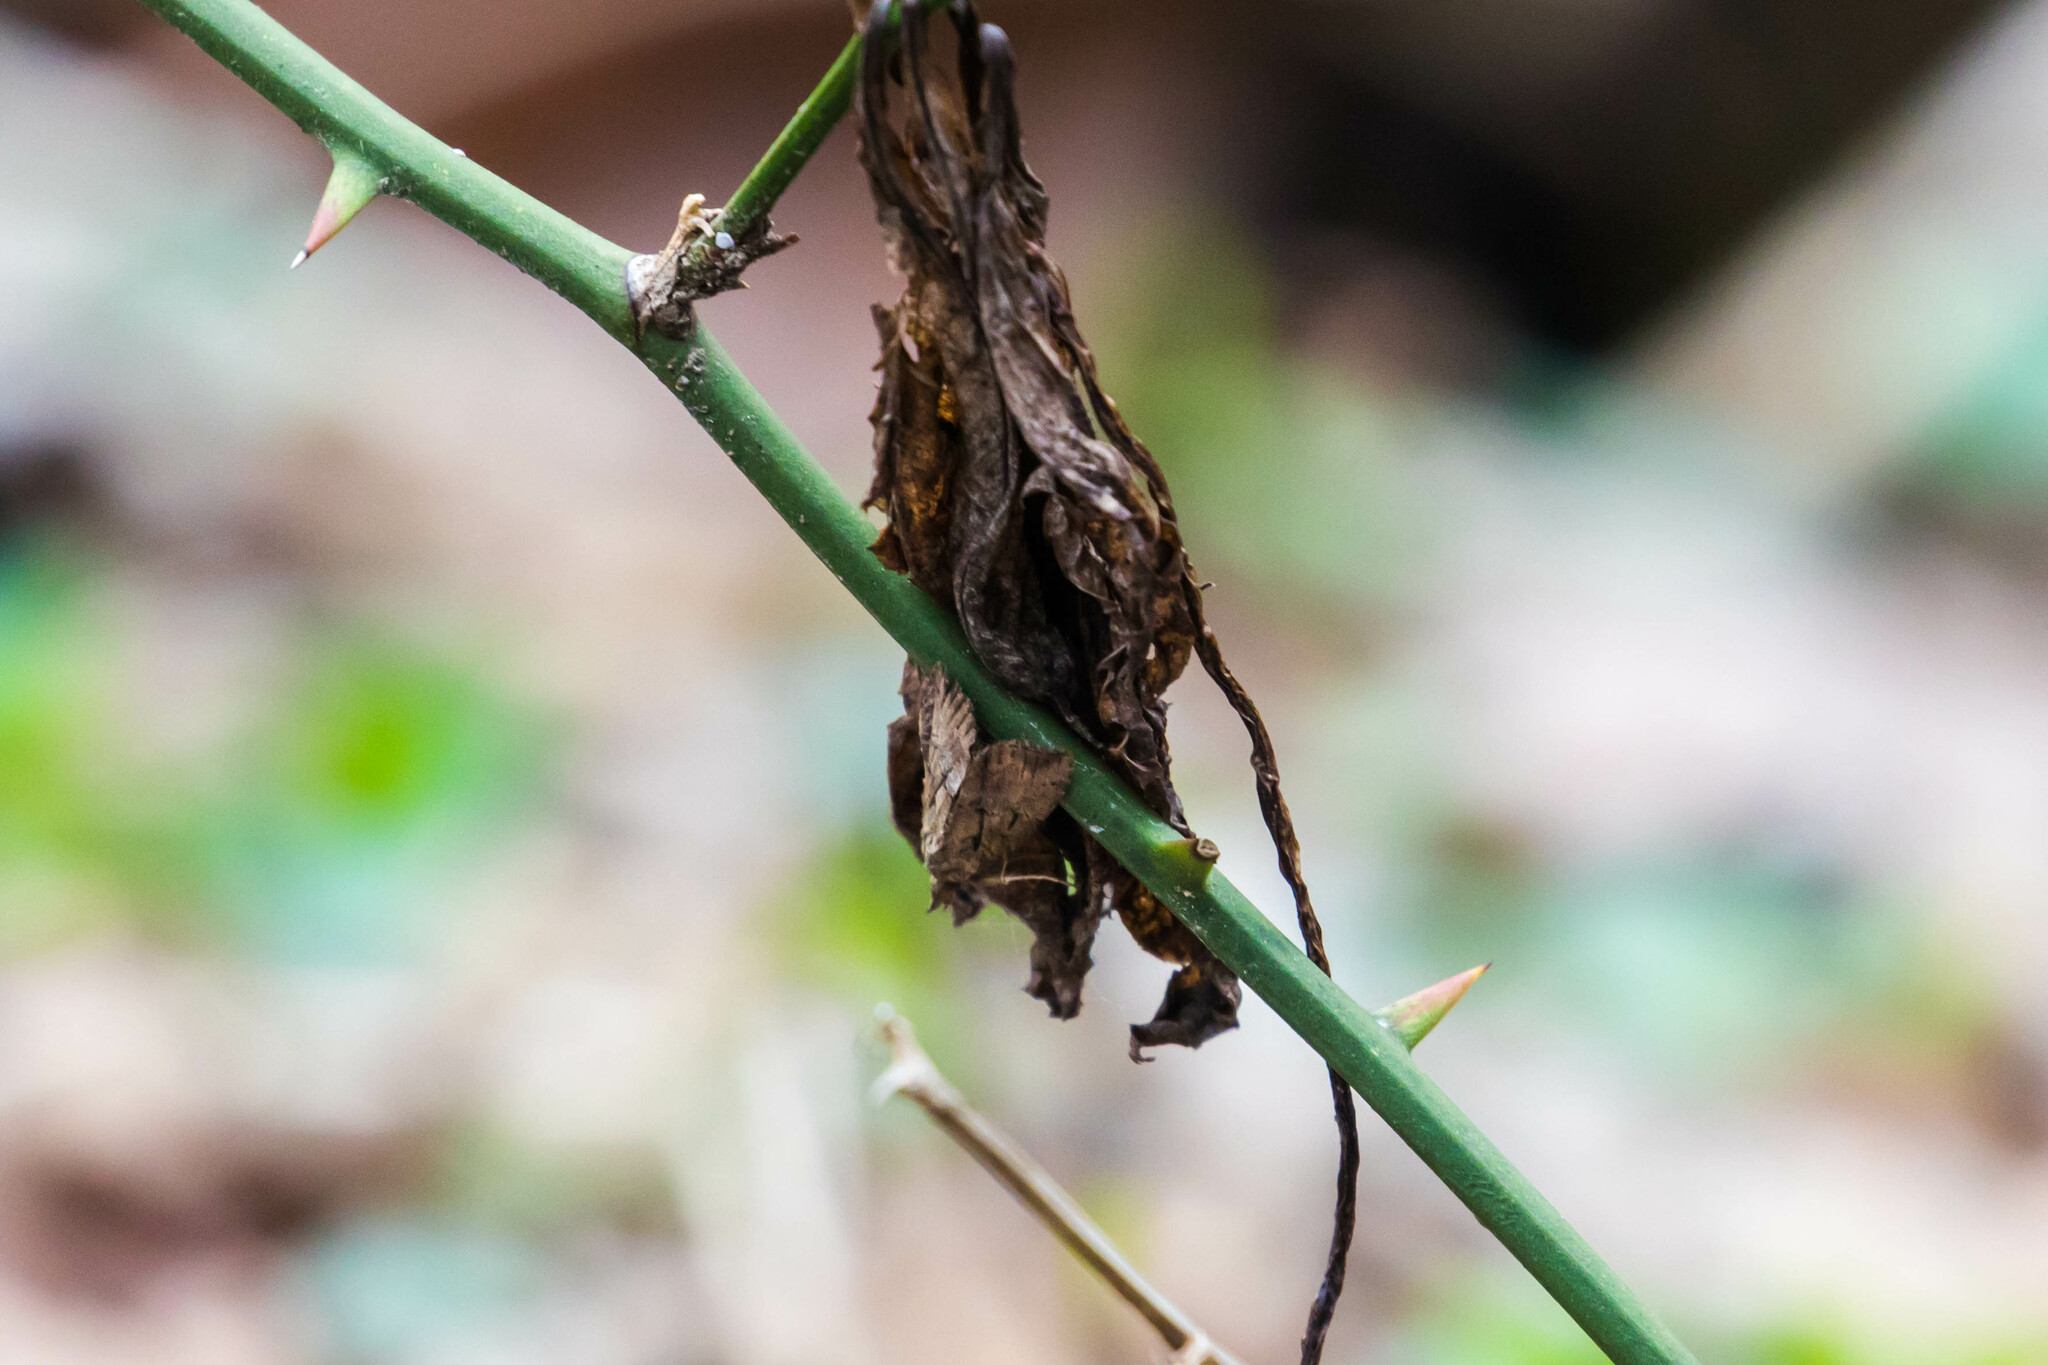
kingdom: Animalia
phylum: Arthropoda
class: Insecta
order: Lepidoptera
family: Erebidae
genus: Hypena
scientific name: Hypena scabra
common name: Green cloverworm
